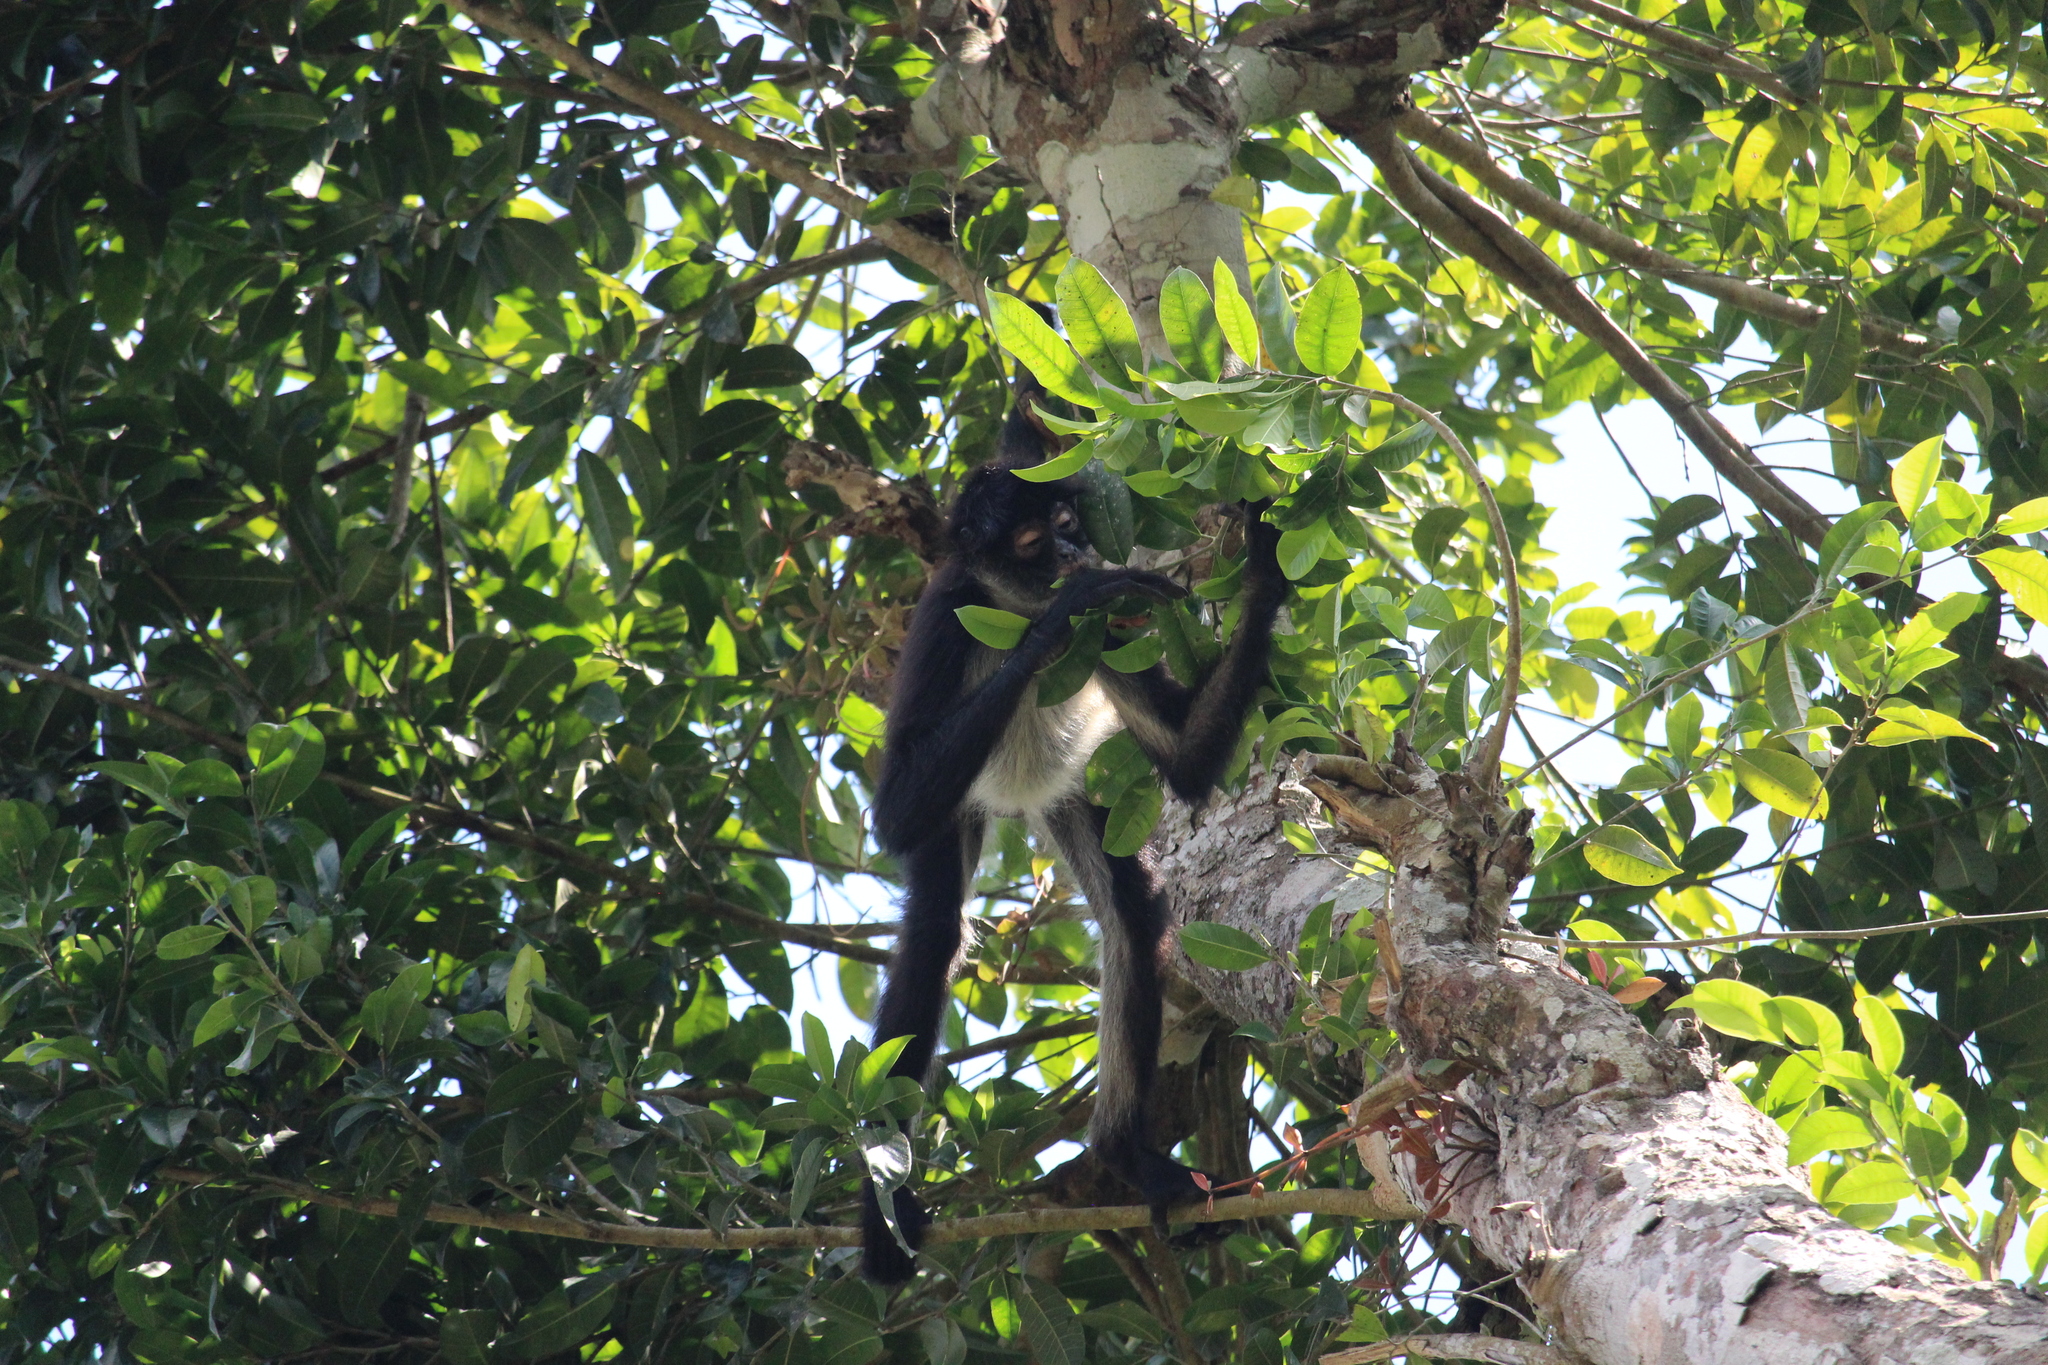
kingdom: Animalia
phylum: Chordata
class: Mammalia
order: Primates
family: Atelidae
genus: Ateles
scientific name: Ateles geoffroyi
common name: Black-handed spider monkey
